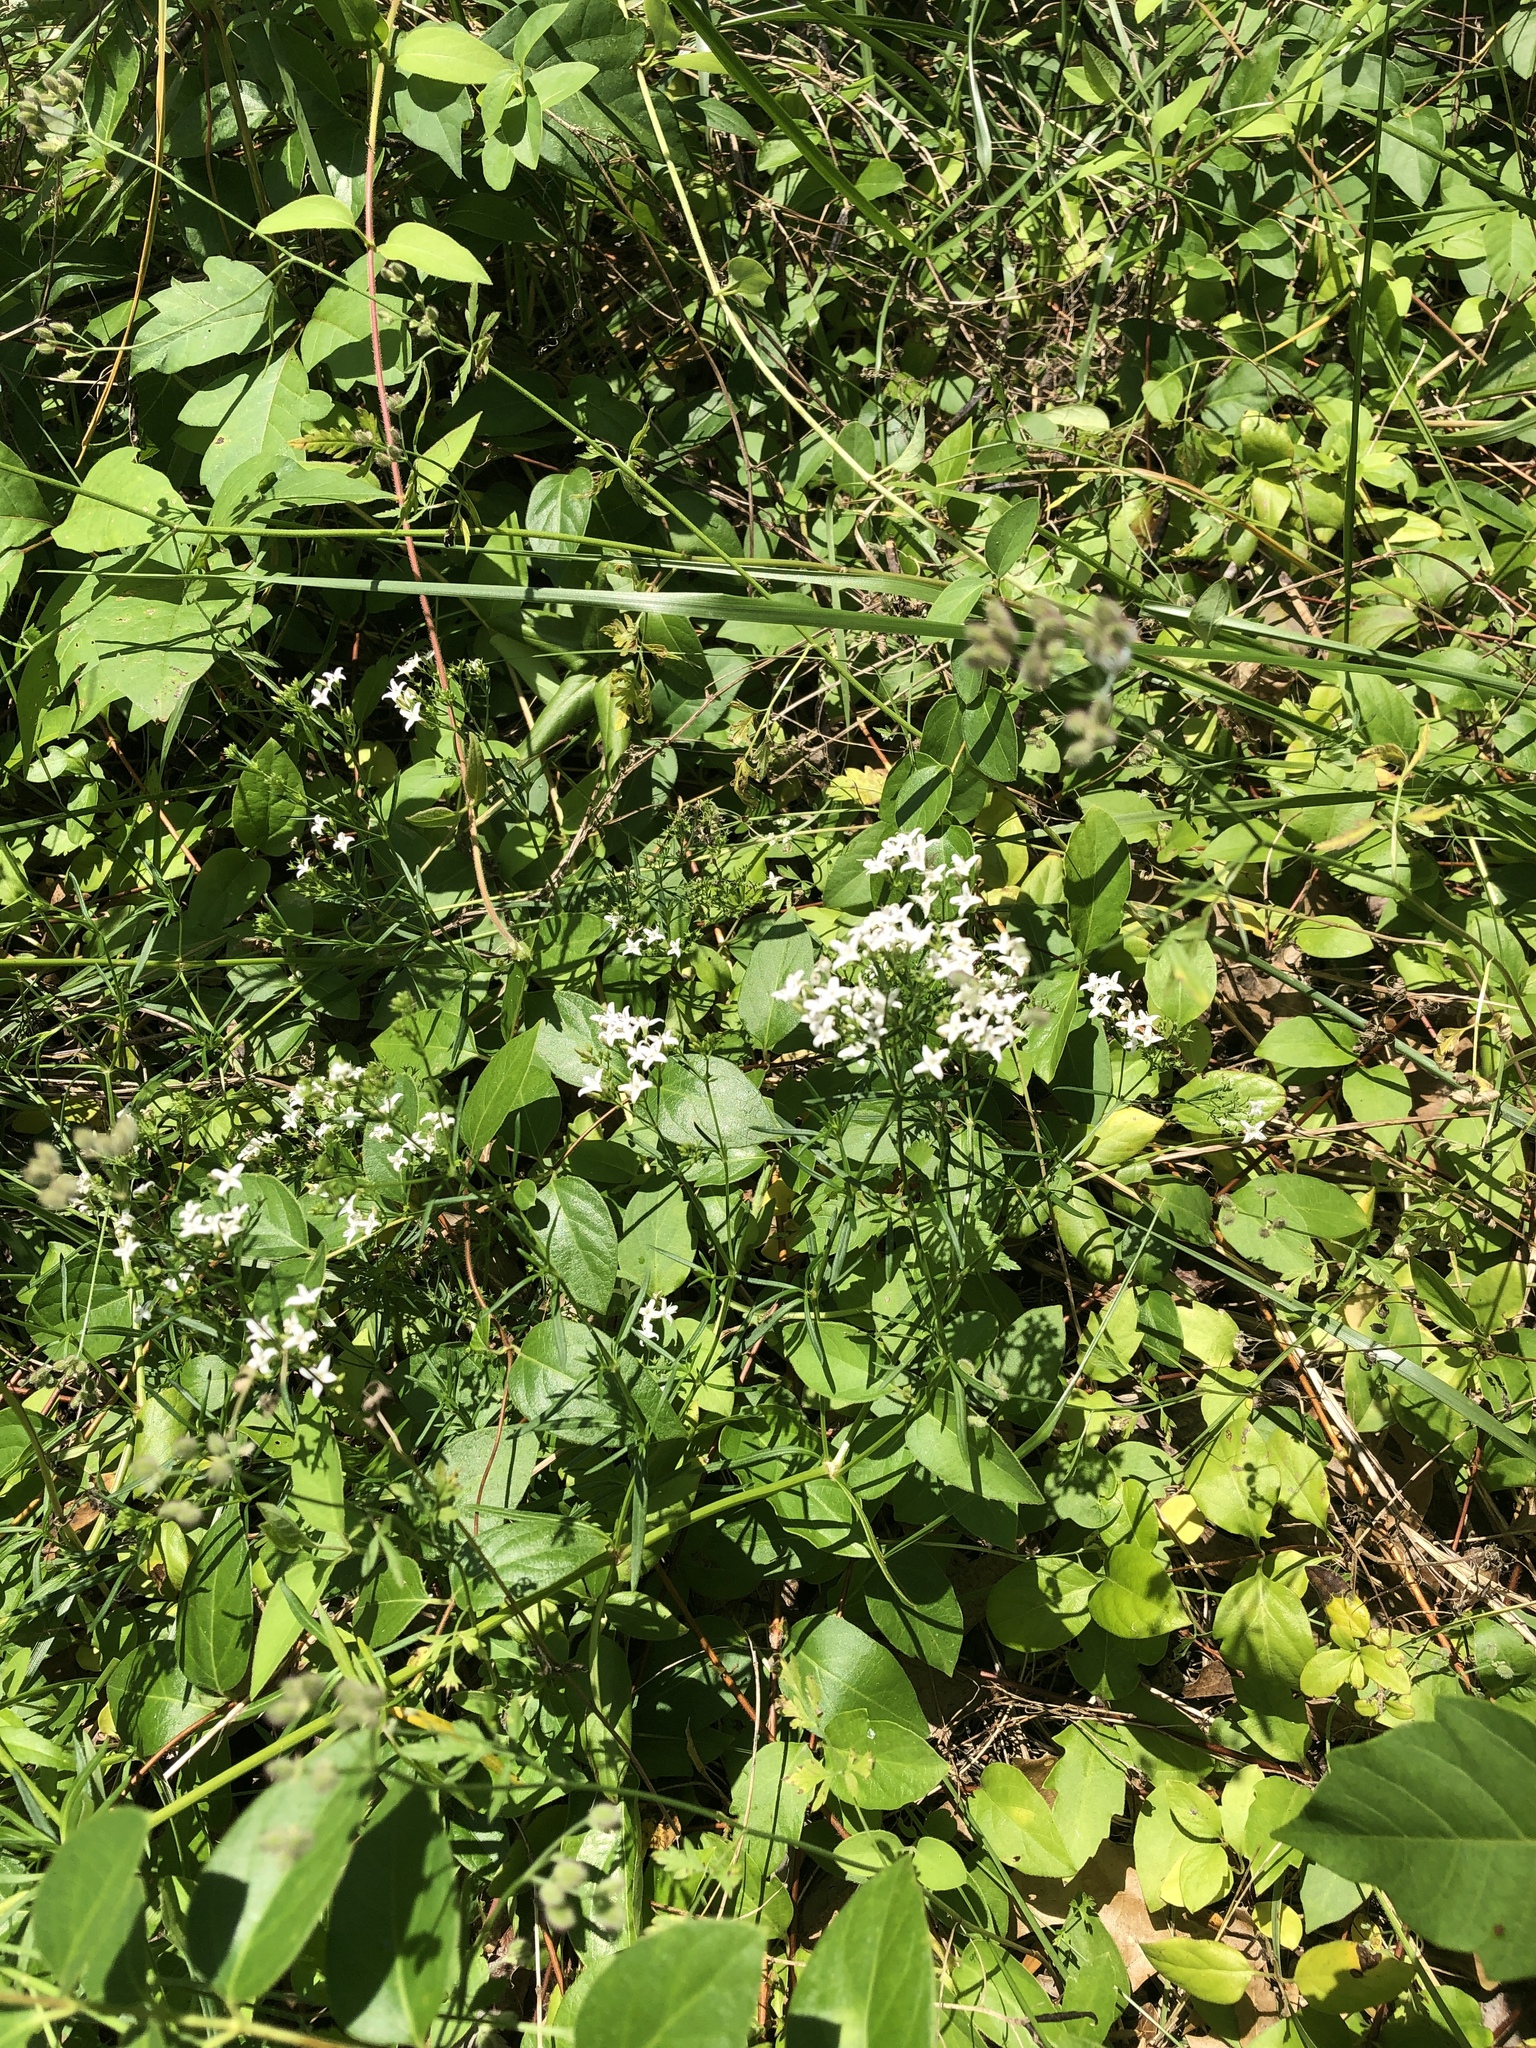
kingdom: Plantae
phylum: Tracheophyta
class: Magnoliopsida
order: Gentianales
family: Rubiaceae
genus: Stenaria
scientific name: Stenaria nigricans
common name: Diamondflowers
